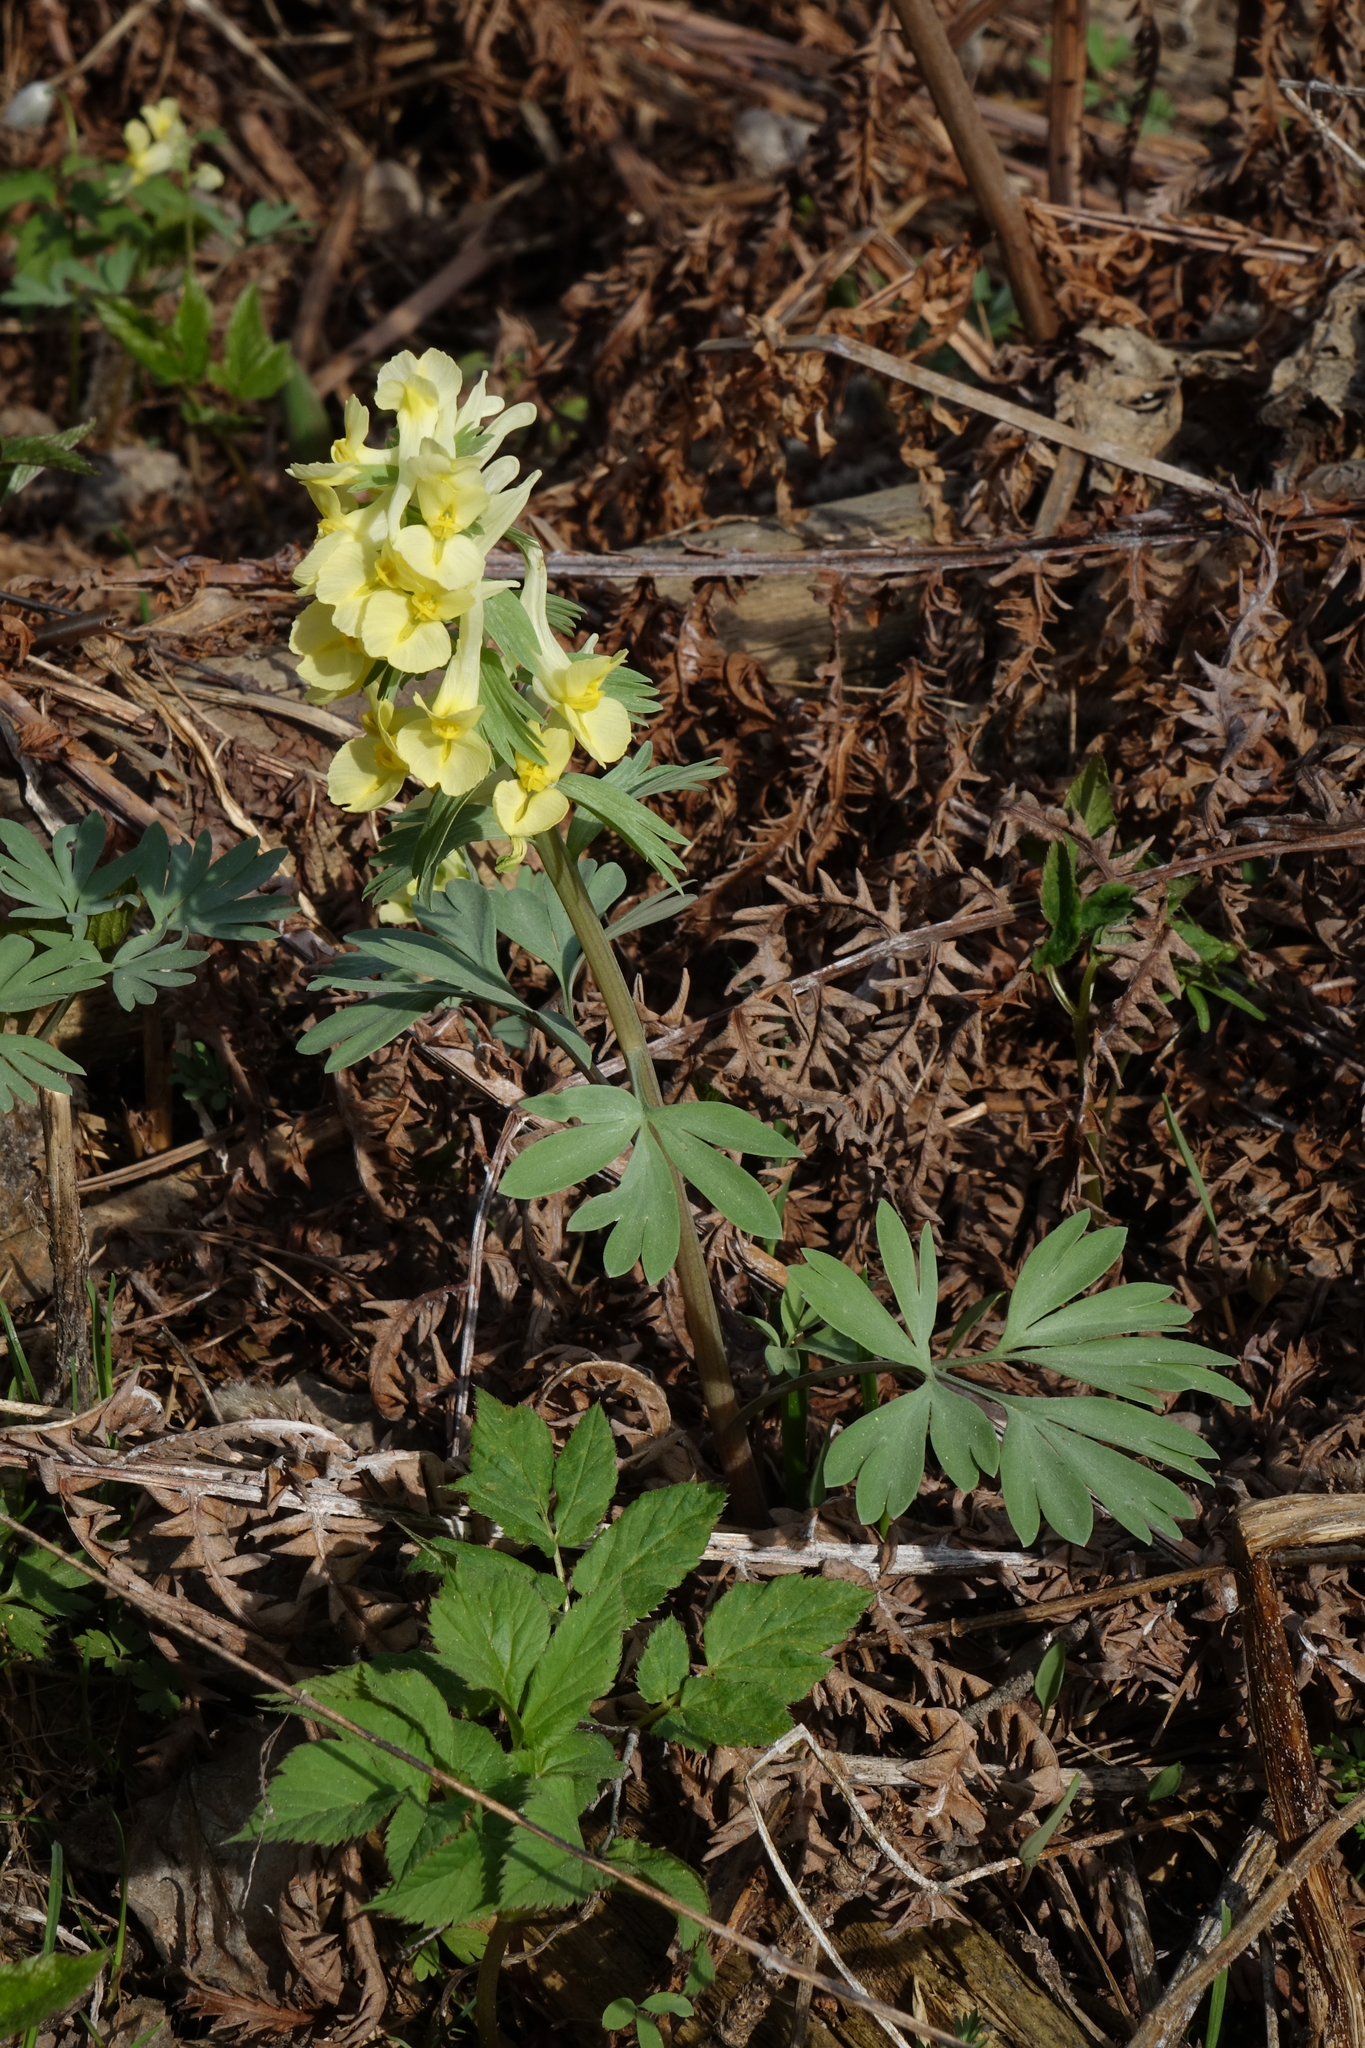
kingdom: Plantae
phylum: Tracheophyta
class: Magnoliopsida
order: Ranunculales
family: Papaveraceae
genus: Corydalis
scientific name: Corydalis bracteata
